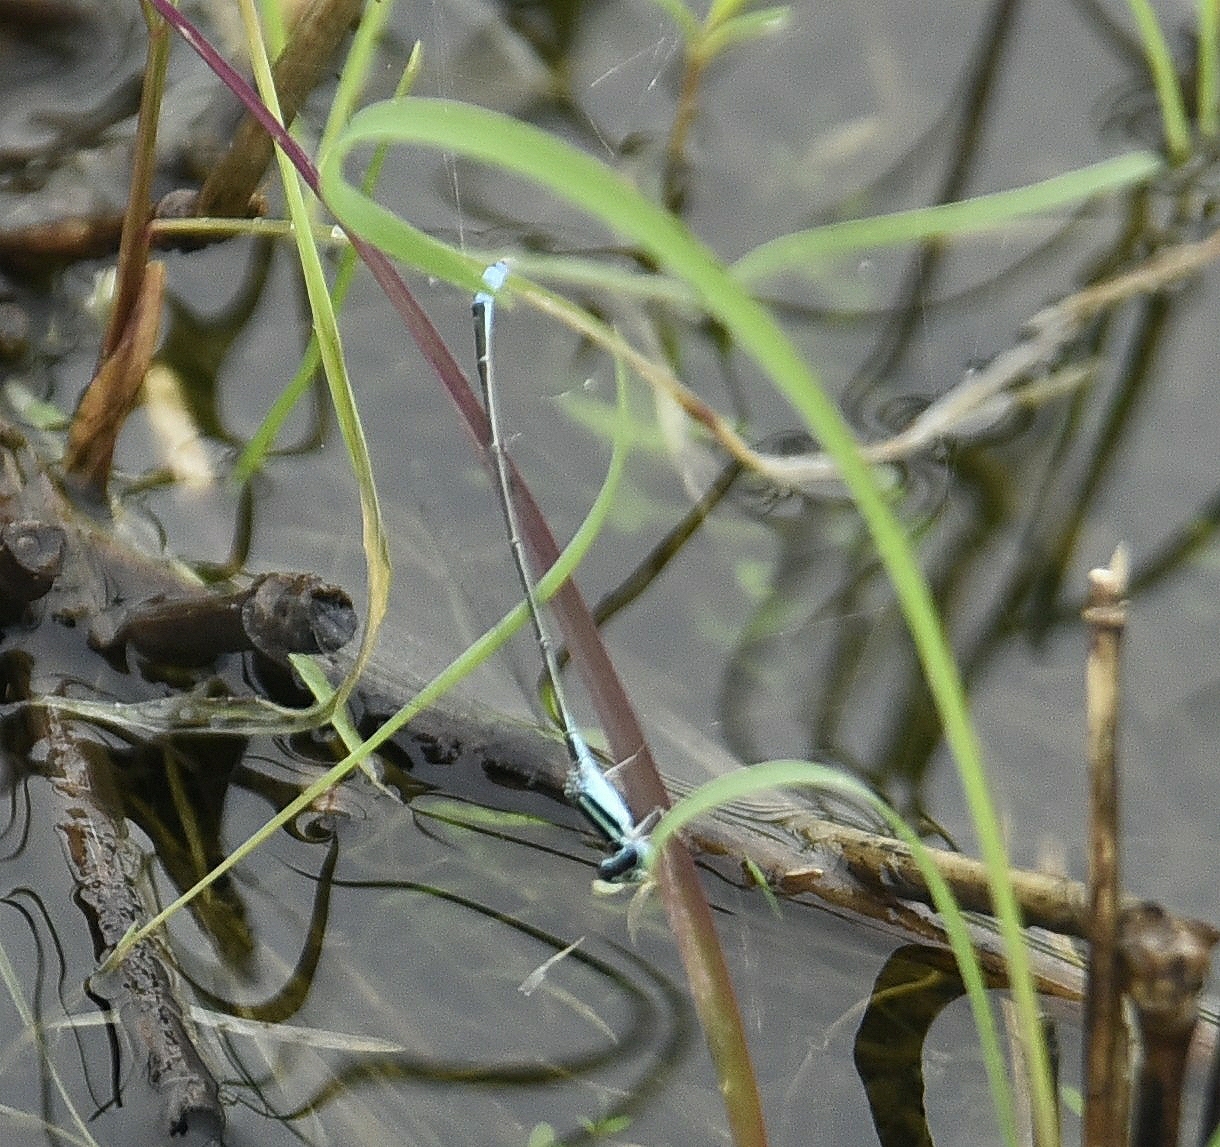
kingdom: Animalia
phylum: Arthropoda
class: Insecta
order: Odonata
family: Coenagrionidae
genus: Aciagrion
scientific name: Aciagrion occidentale
